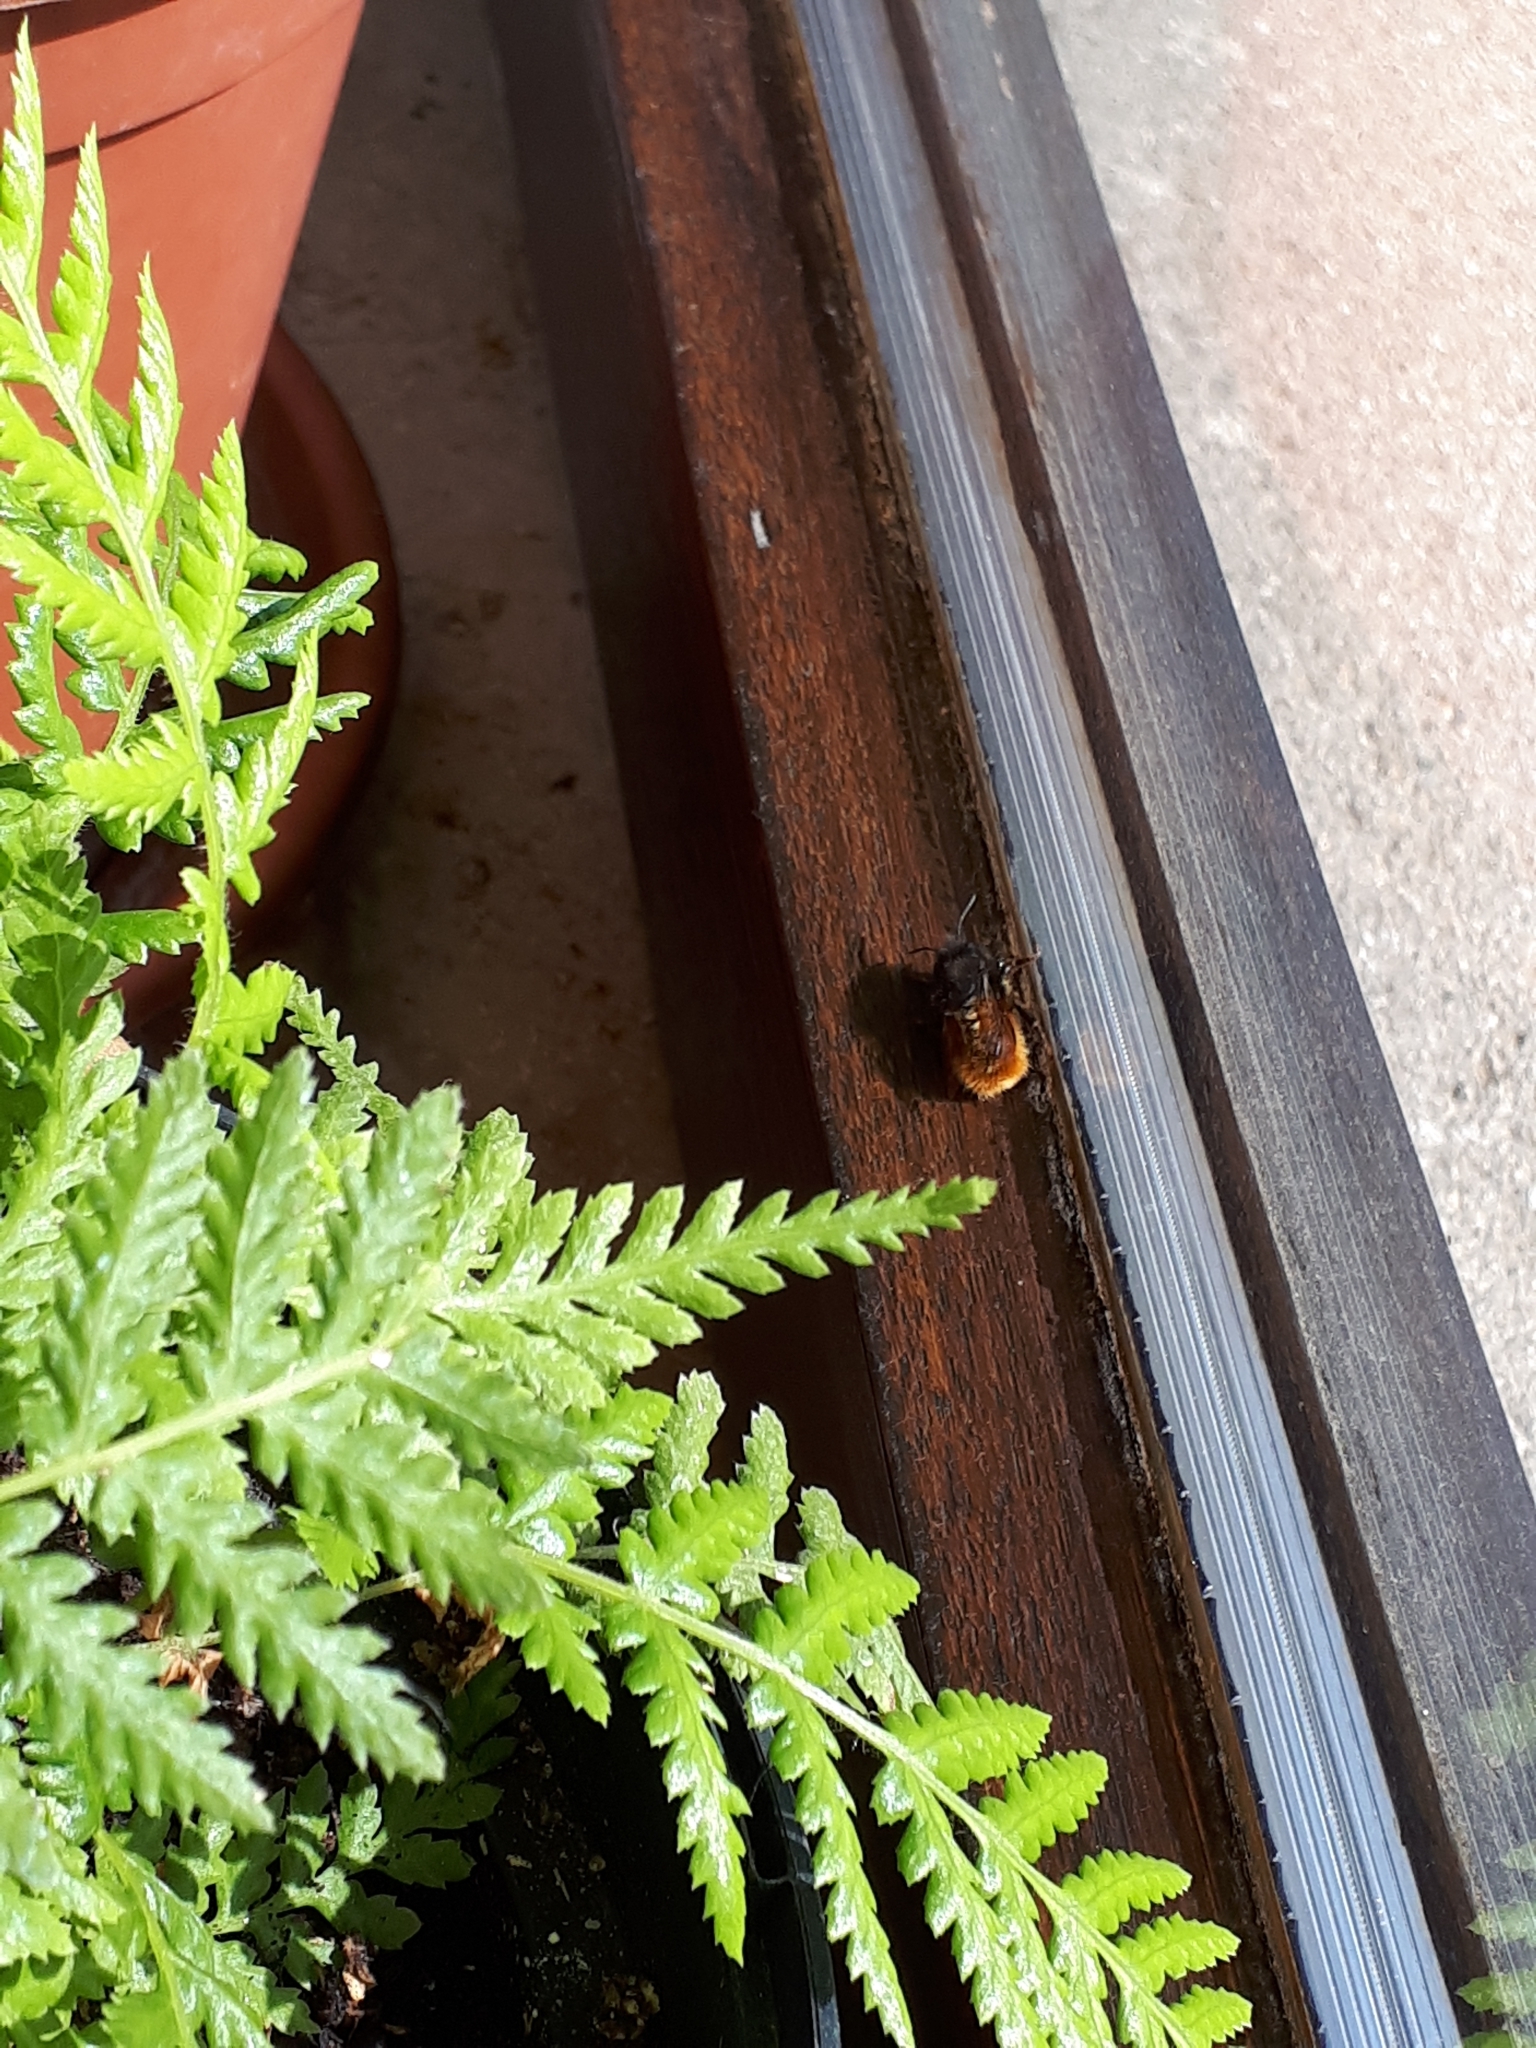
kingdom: Animalia
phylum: Arthropoda
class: Insecta
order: Hymenoptera
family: Megachilidae
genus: Osmia
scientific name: Osmia cornuta
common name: Mason bee
